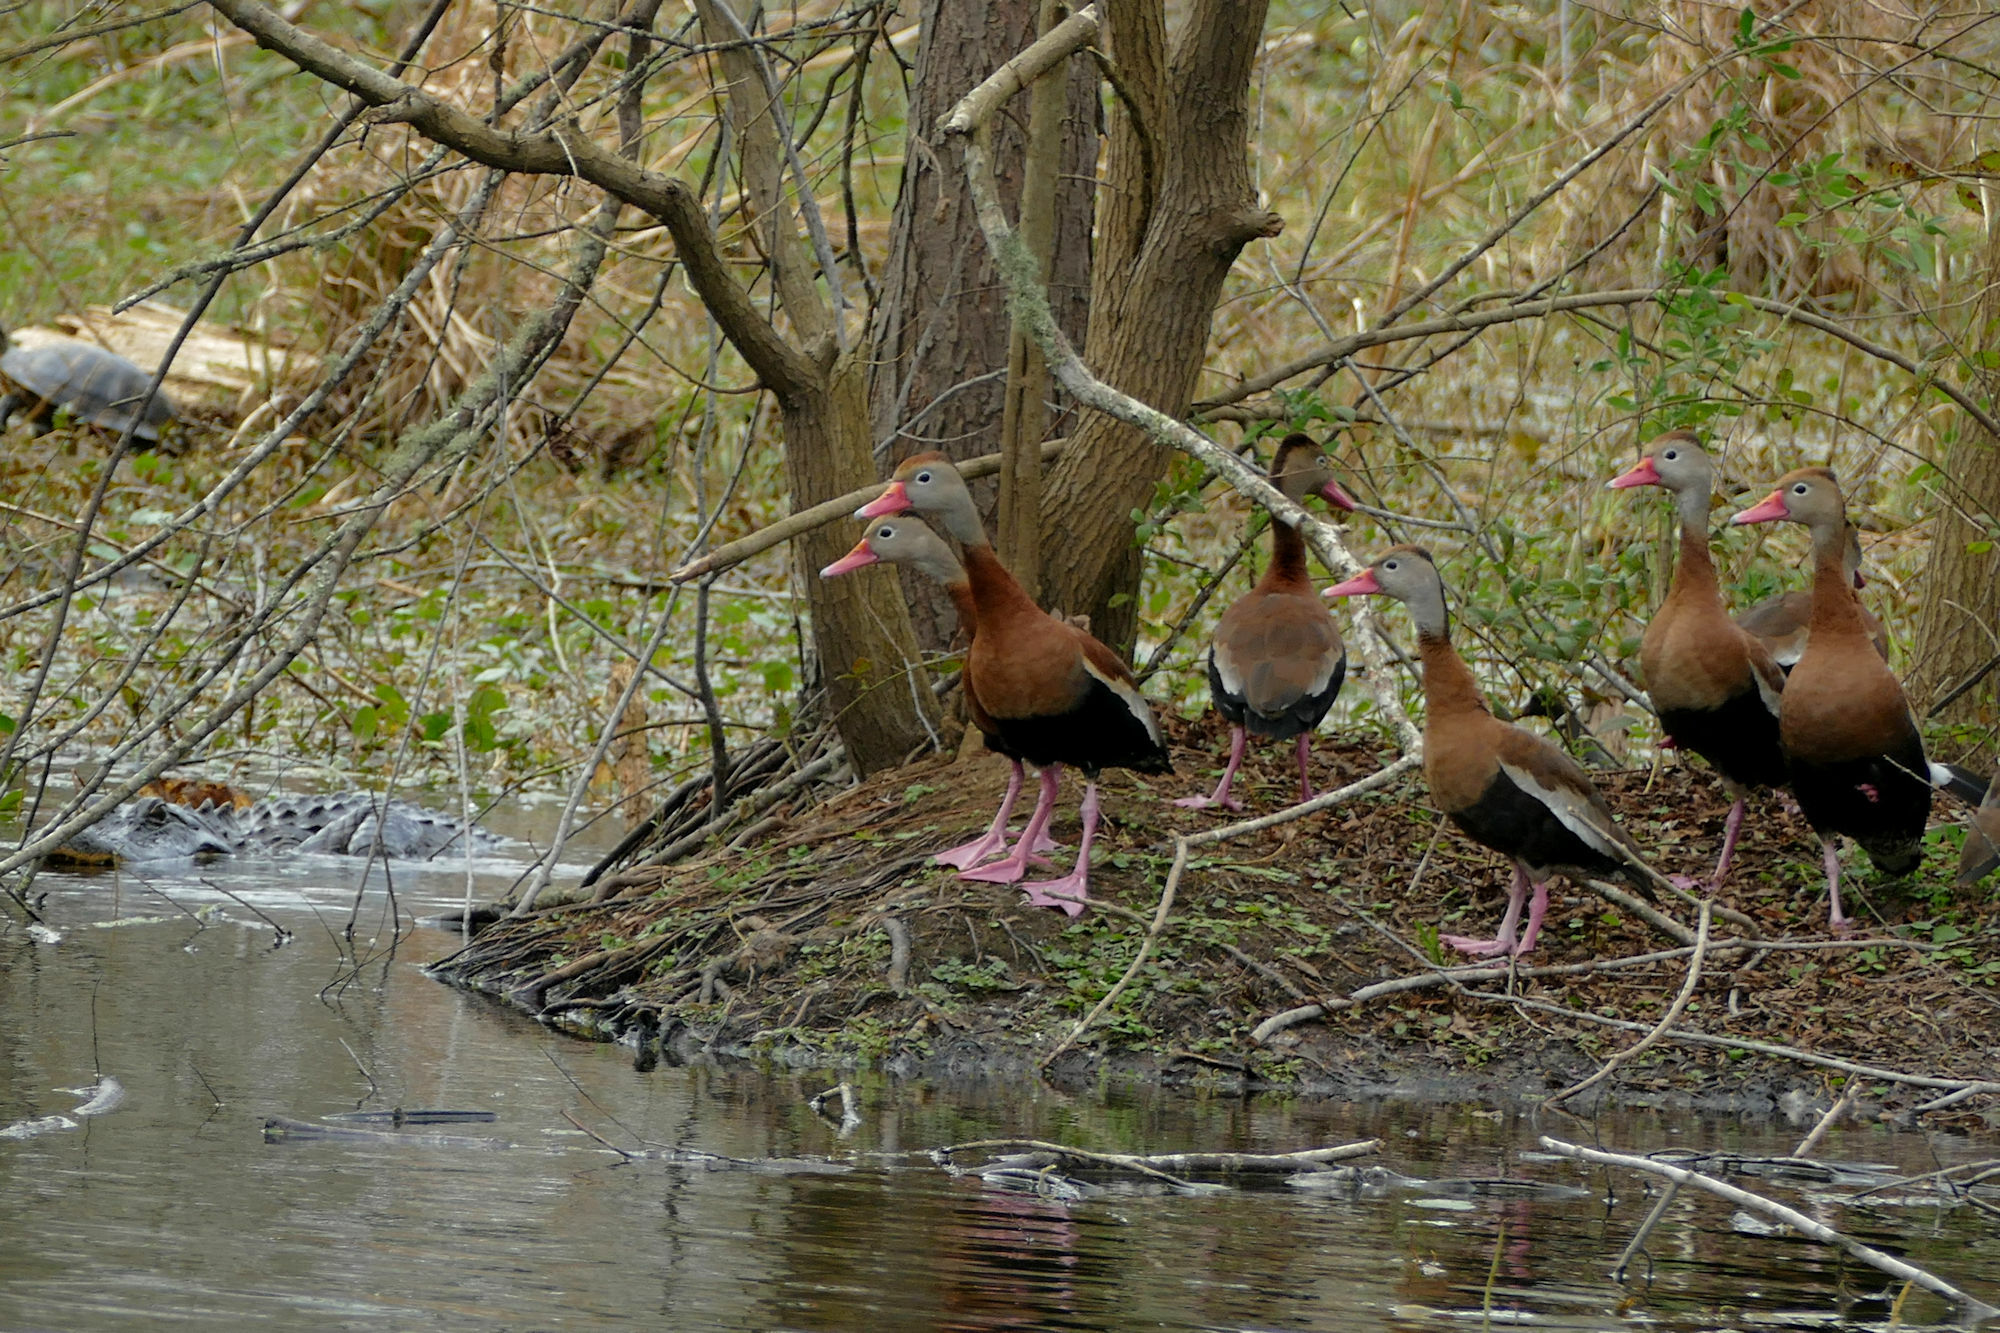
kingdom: Animalia
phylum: Chordata
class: Aves
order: Anseriformes
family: Anatidae
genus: Dendrocygna
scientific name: Dendrocygna autumnalis
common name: Black-bellied whistling duck
